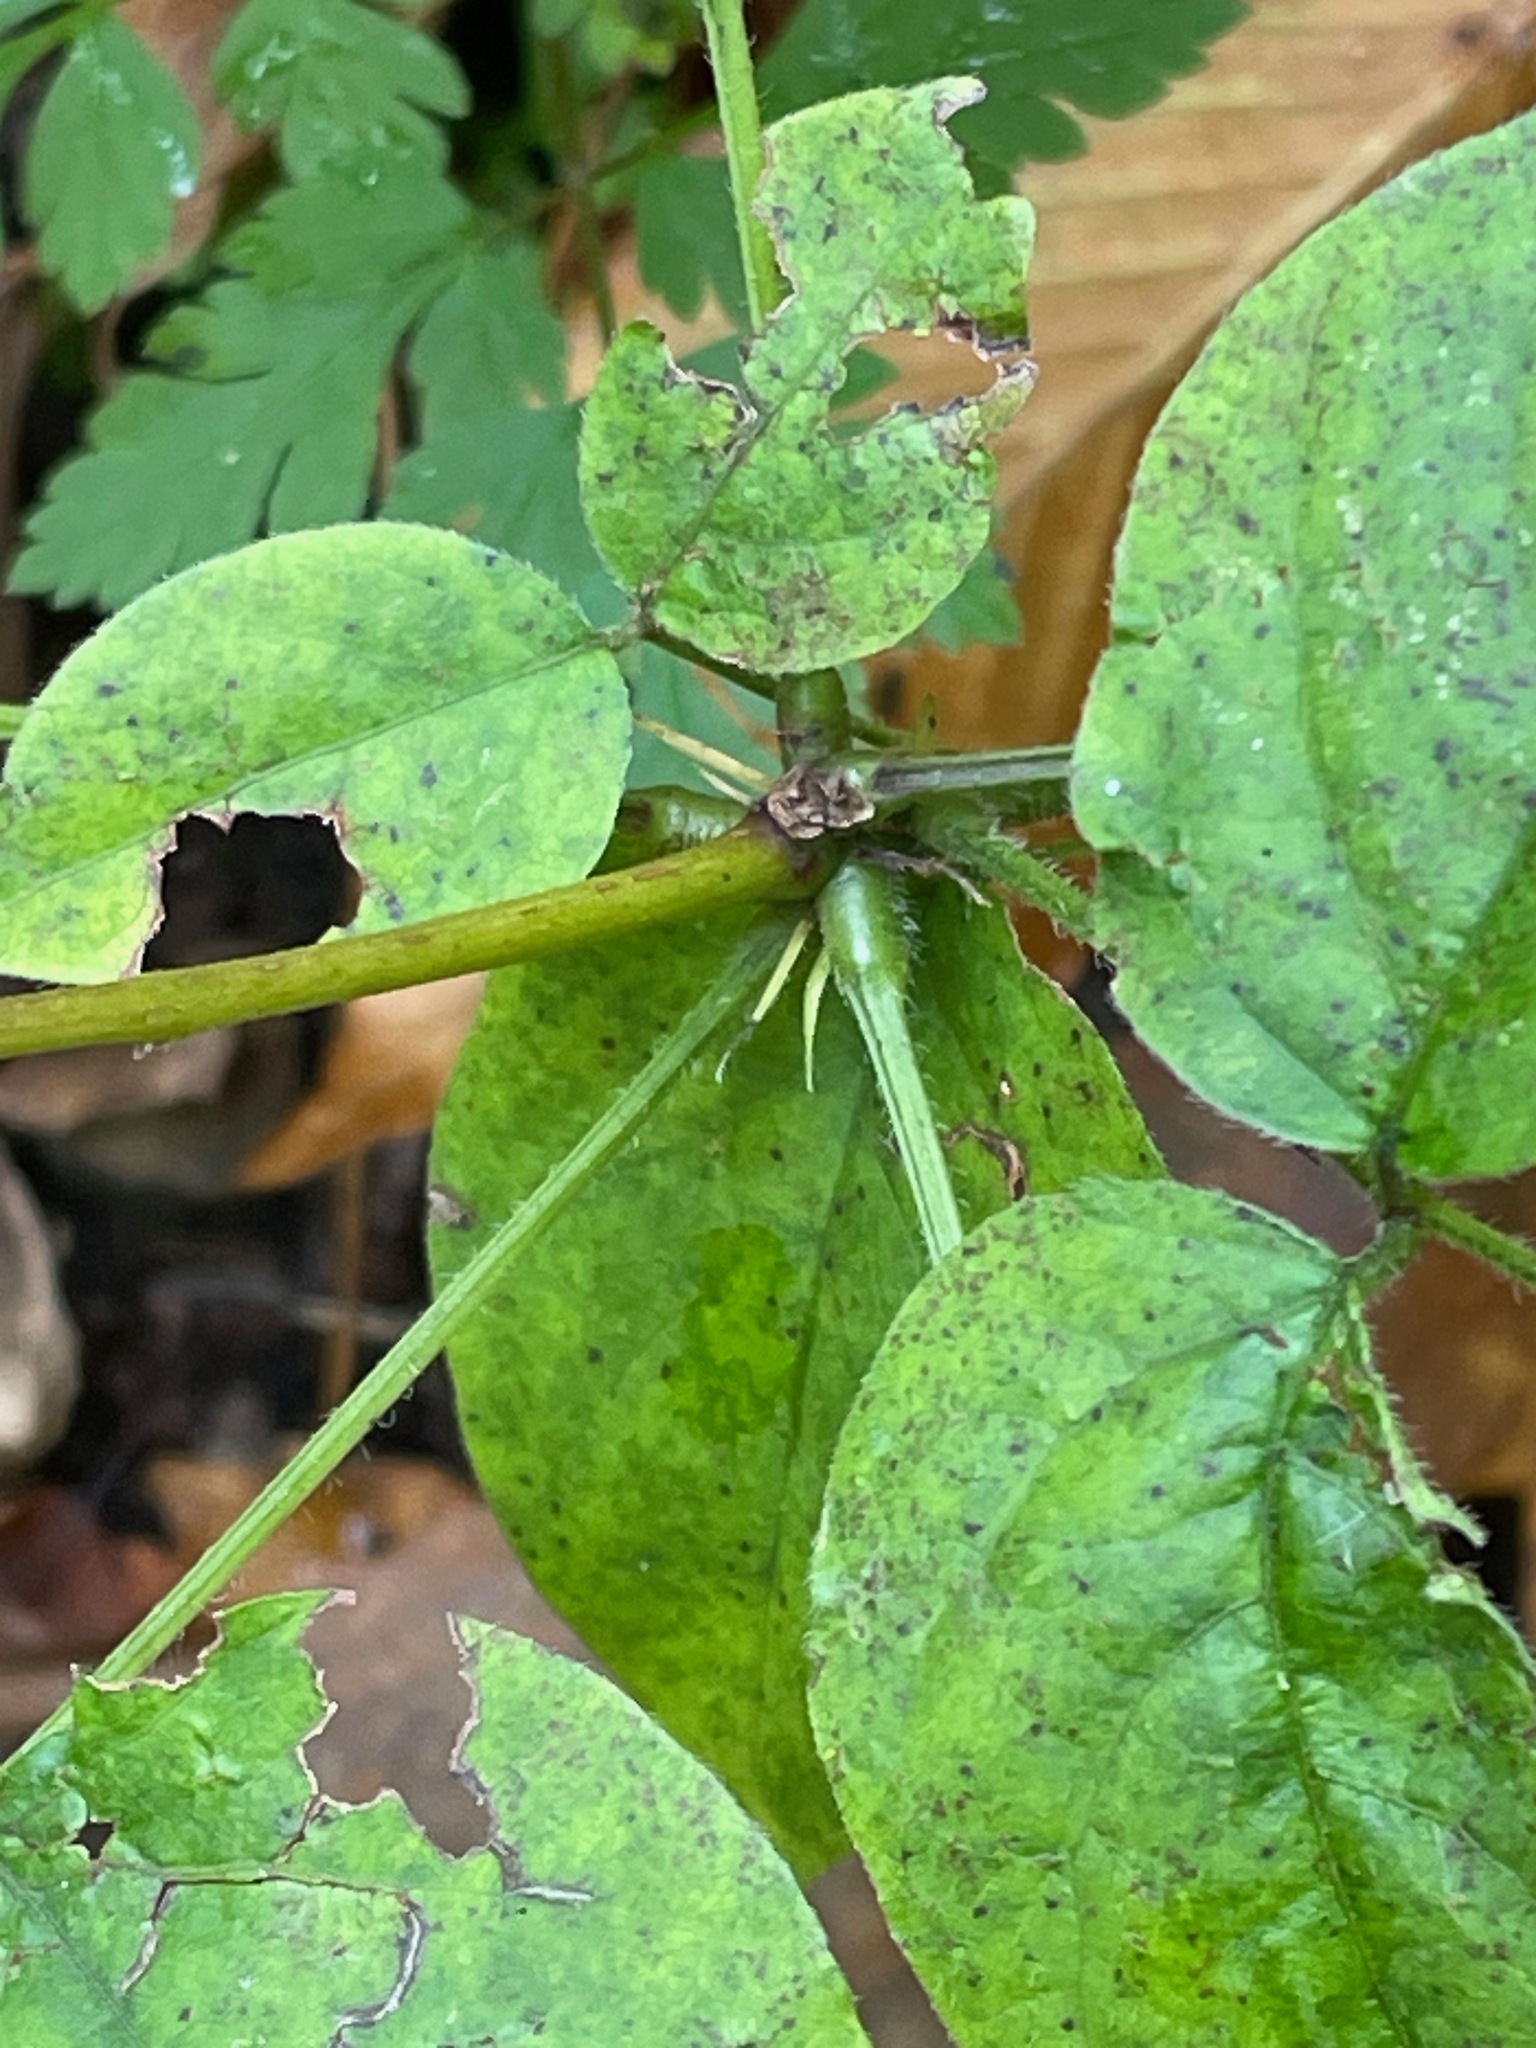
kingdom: Plantae
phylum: Tracheophyta
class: Magnoliopsida
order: Fabales
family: Fabaceae
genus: Hylodesmum
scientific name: Hylodesmum glutinosum
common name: Clustered-leaved tick-trefoil
